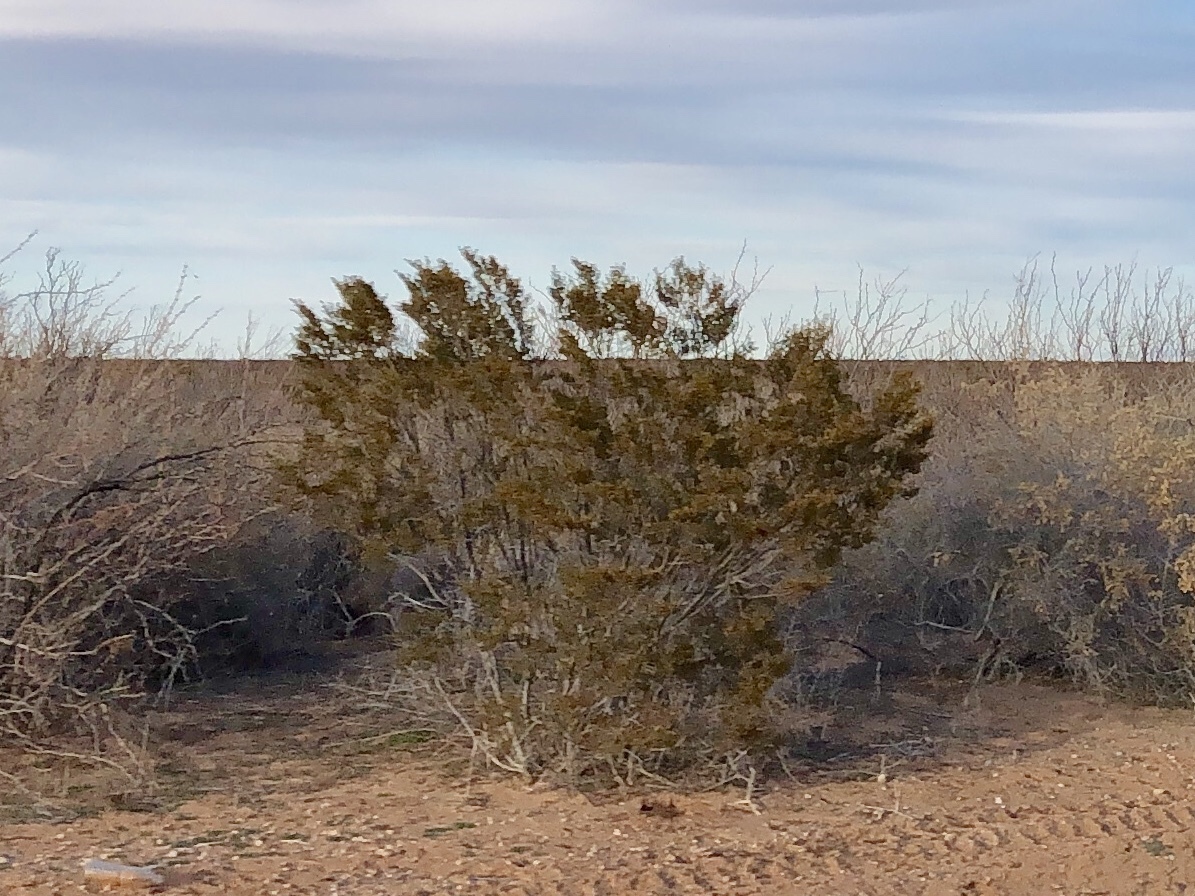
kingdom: Plantae
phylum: Tracheophyta
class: Magnoliopsida
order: Zygophyllales
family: Zygophyllaceae
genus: Larrea
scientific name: Larrea tridentata
